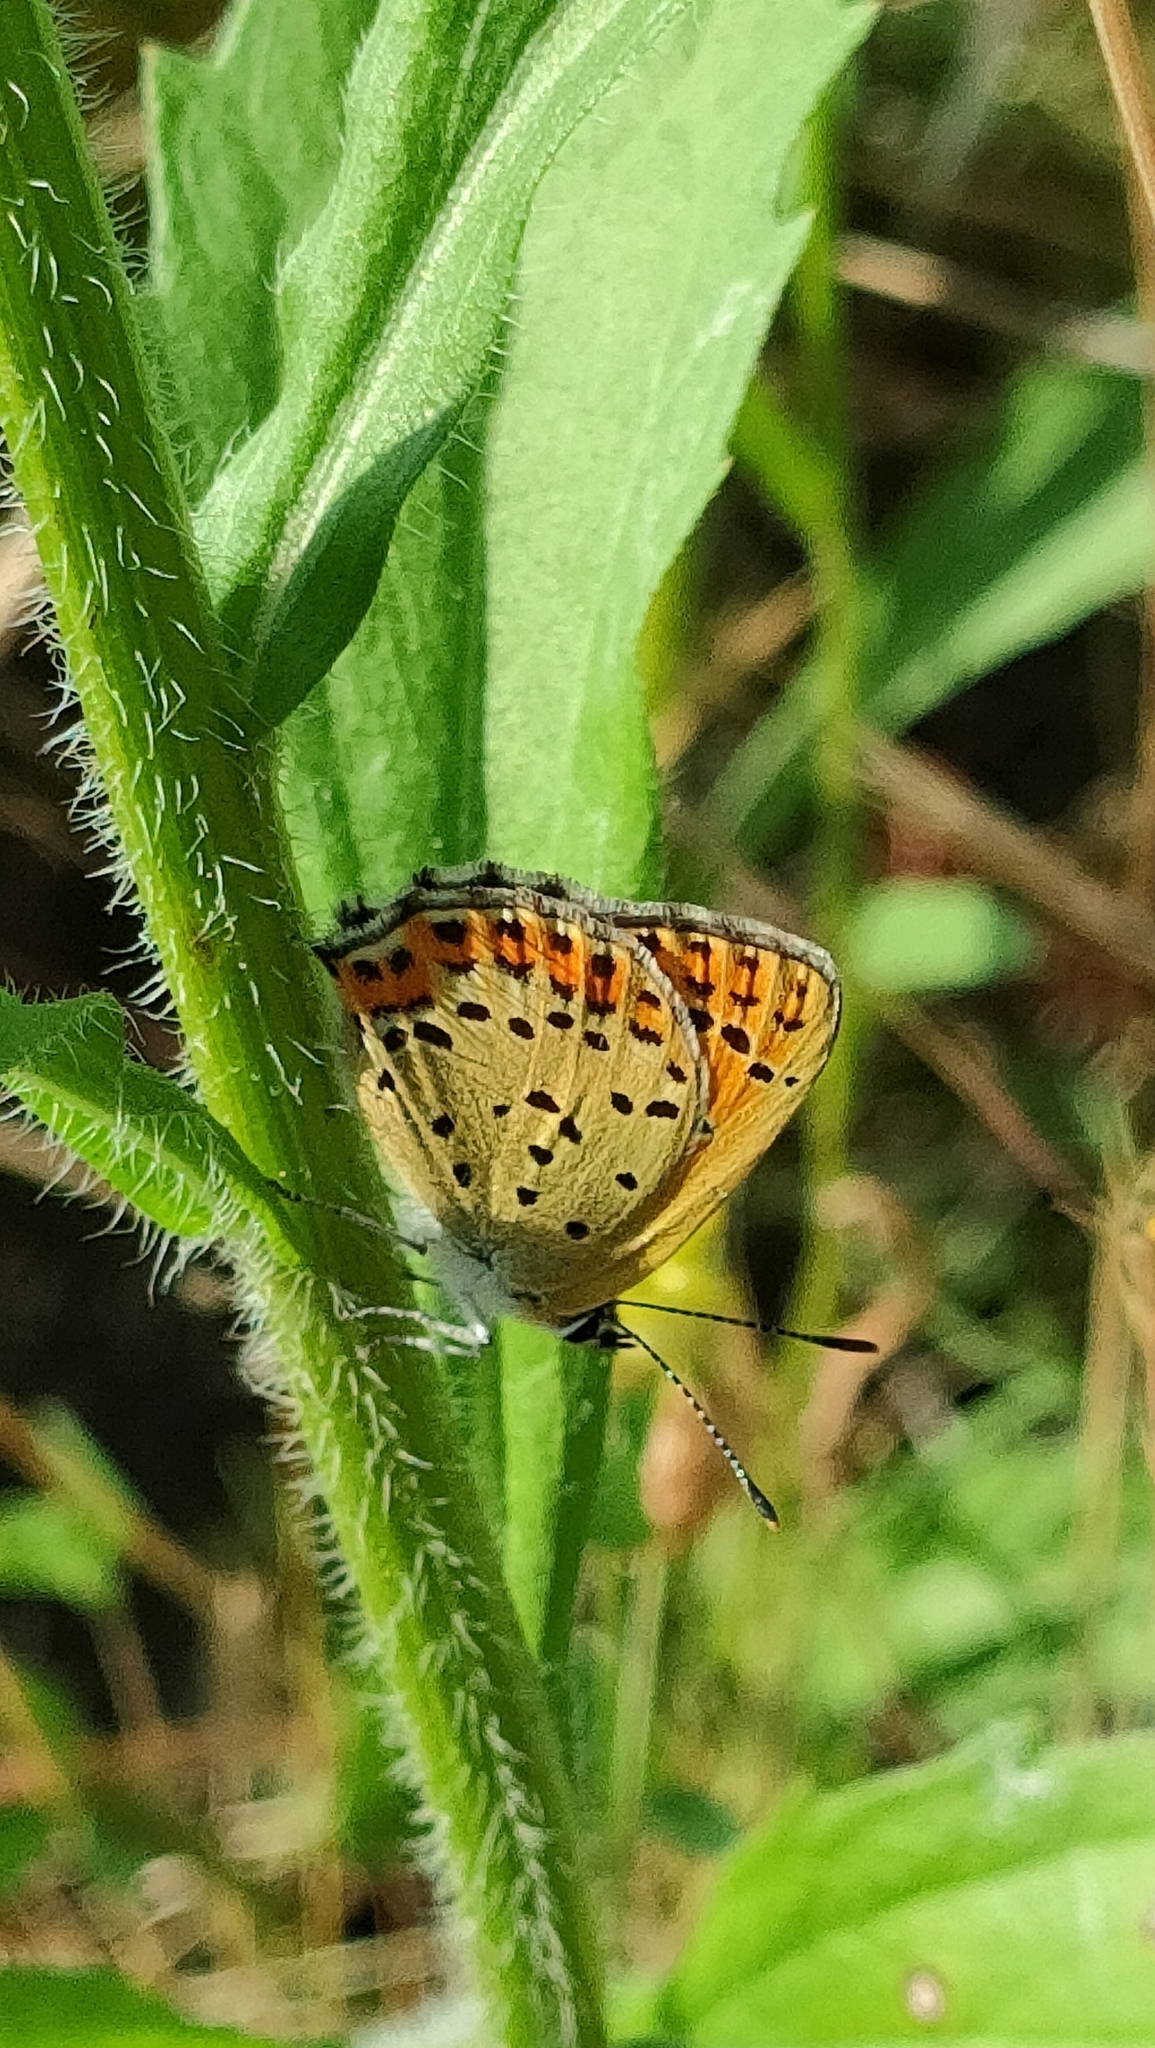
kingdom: Animalia
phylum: Arthropoda
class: Insecta
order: Lepidoptera
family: Lycaenidae
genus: Loweia
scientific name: Loweia tityrus
